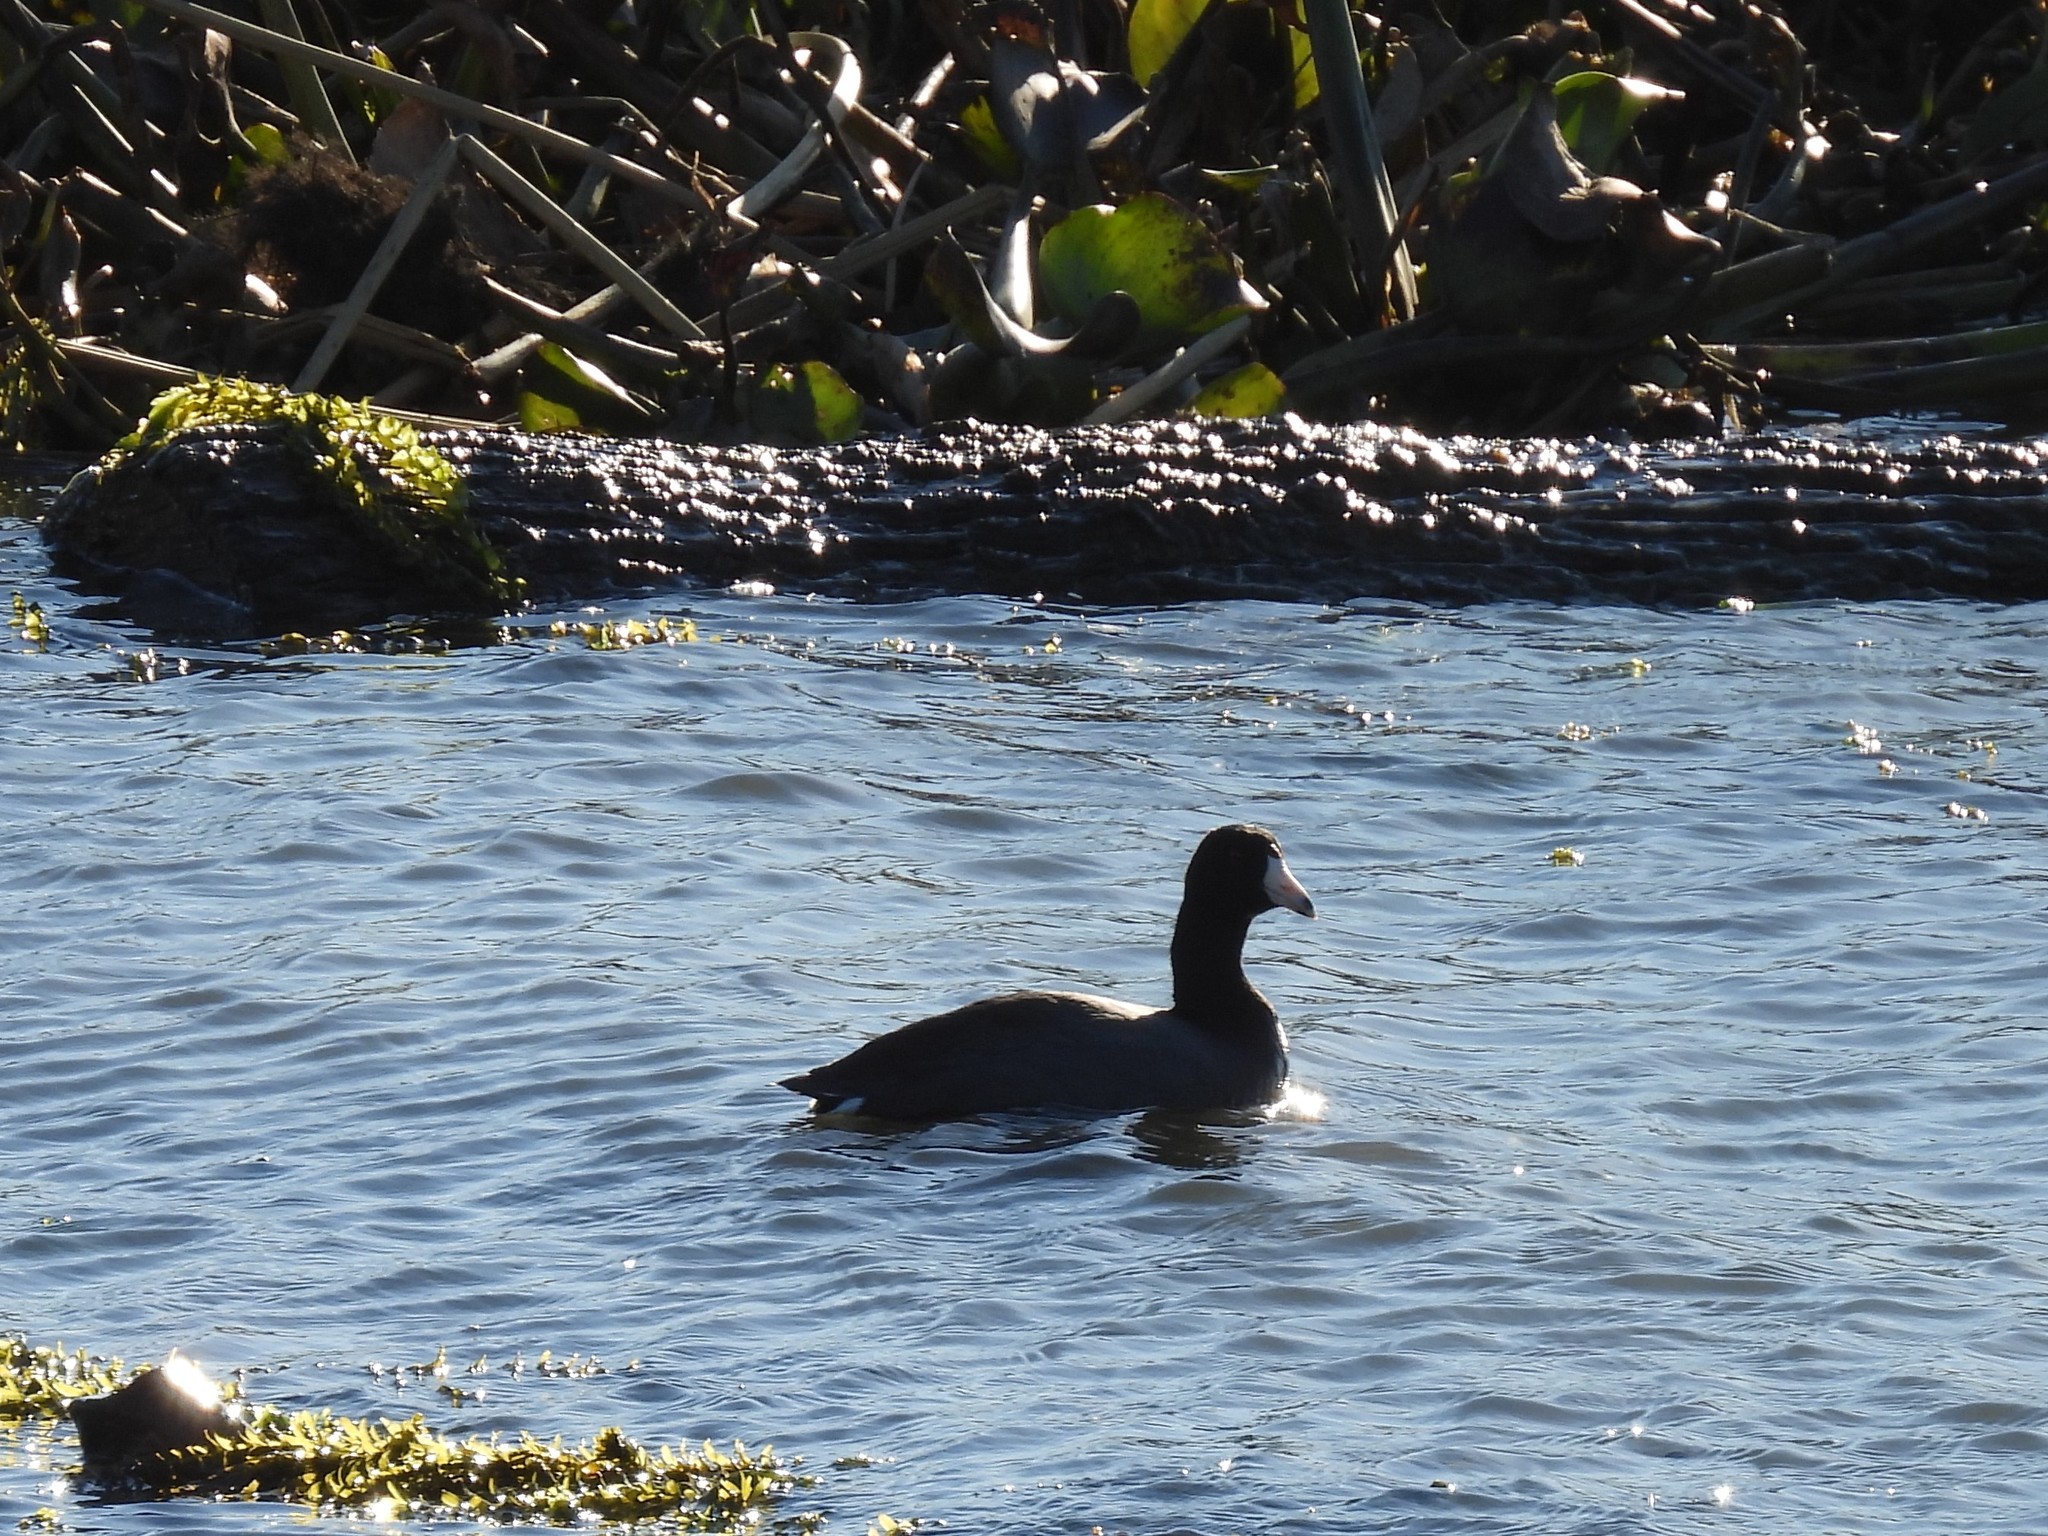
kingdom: Animalia
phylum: Chordata
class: Aves
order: Gruiformes
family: Rallidae
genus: Fulica
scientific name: Fulica americana
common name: American coot
